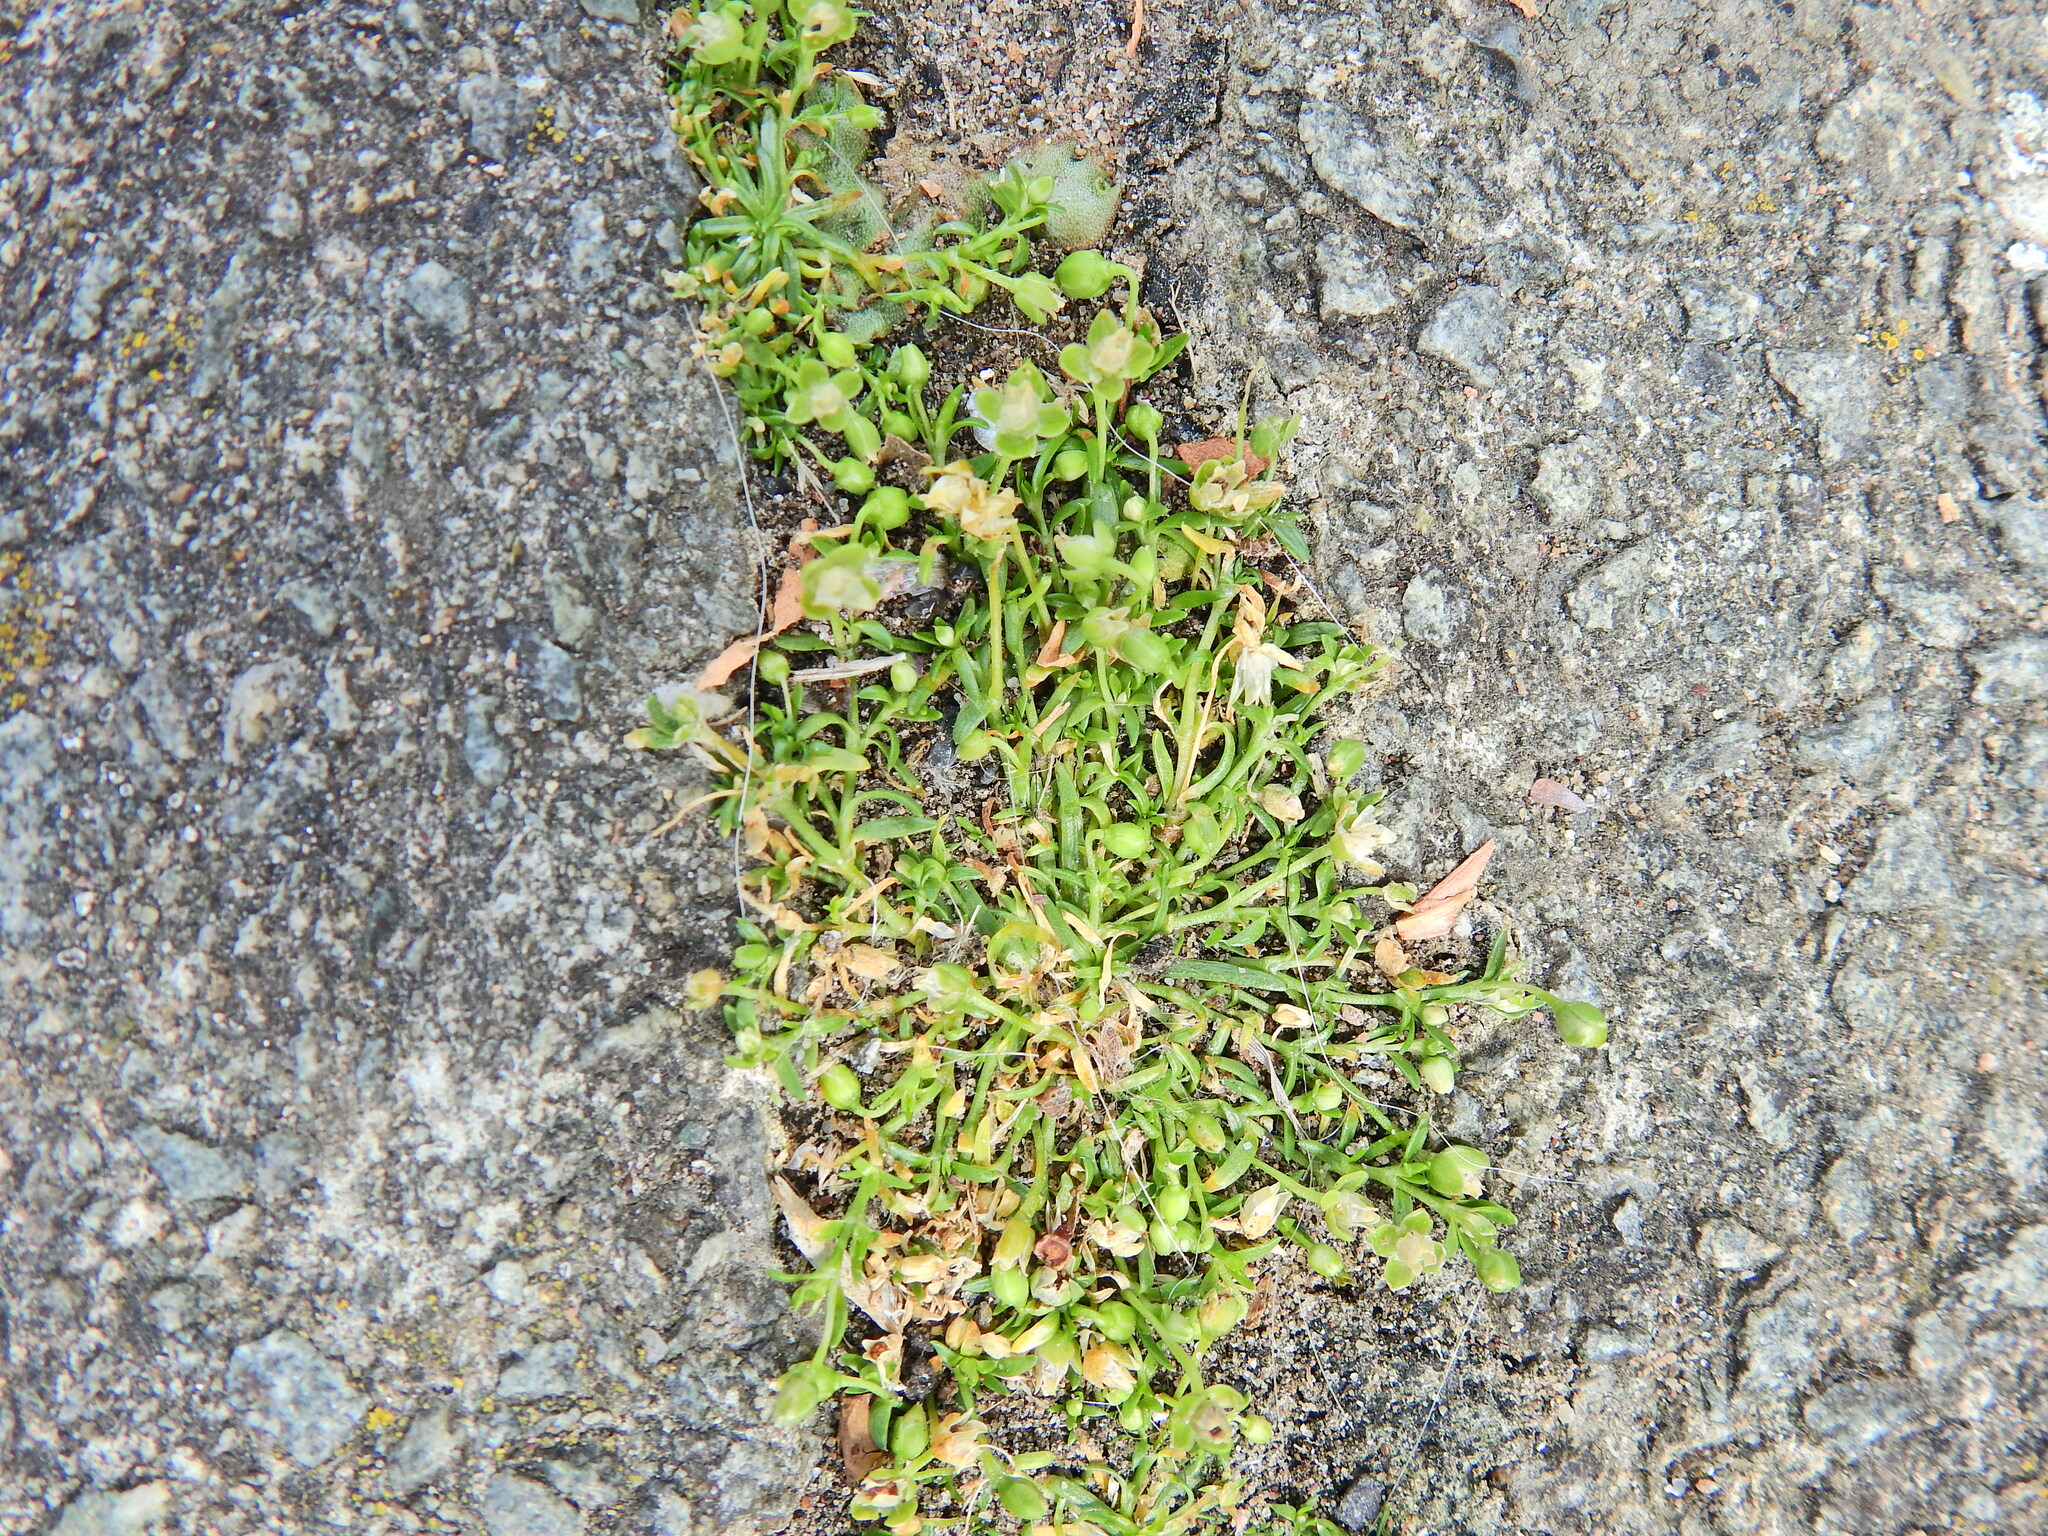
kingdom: Plantae
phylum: Tracheophyta
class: Magnoliopsida
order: Caryophyllales
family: Caryophyllaceae
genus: Sagina
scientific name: Sagina procumbens
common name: Procumbent pearlwort
